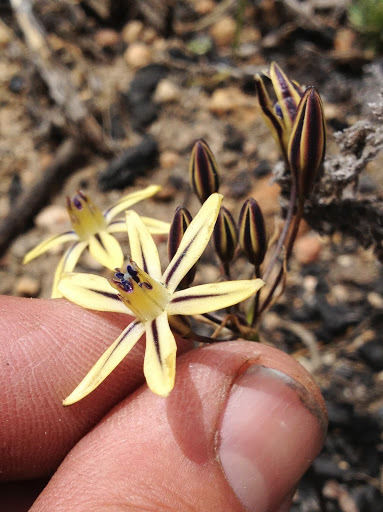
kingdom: Plantae
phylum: Tracheophyta
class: Liliopsida
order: Asparagales
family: Asparagaceae
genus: Triteleia
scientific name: Triteleia ixioides
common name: Yellow-brodiaea
